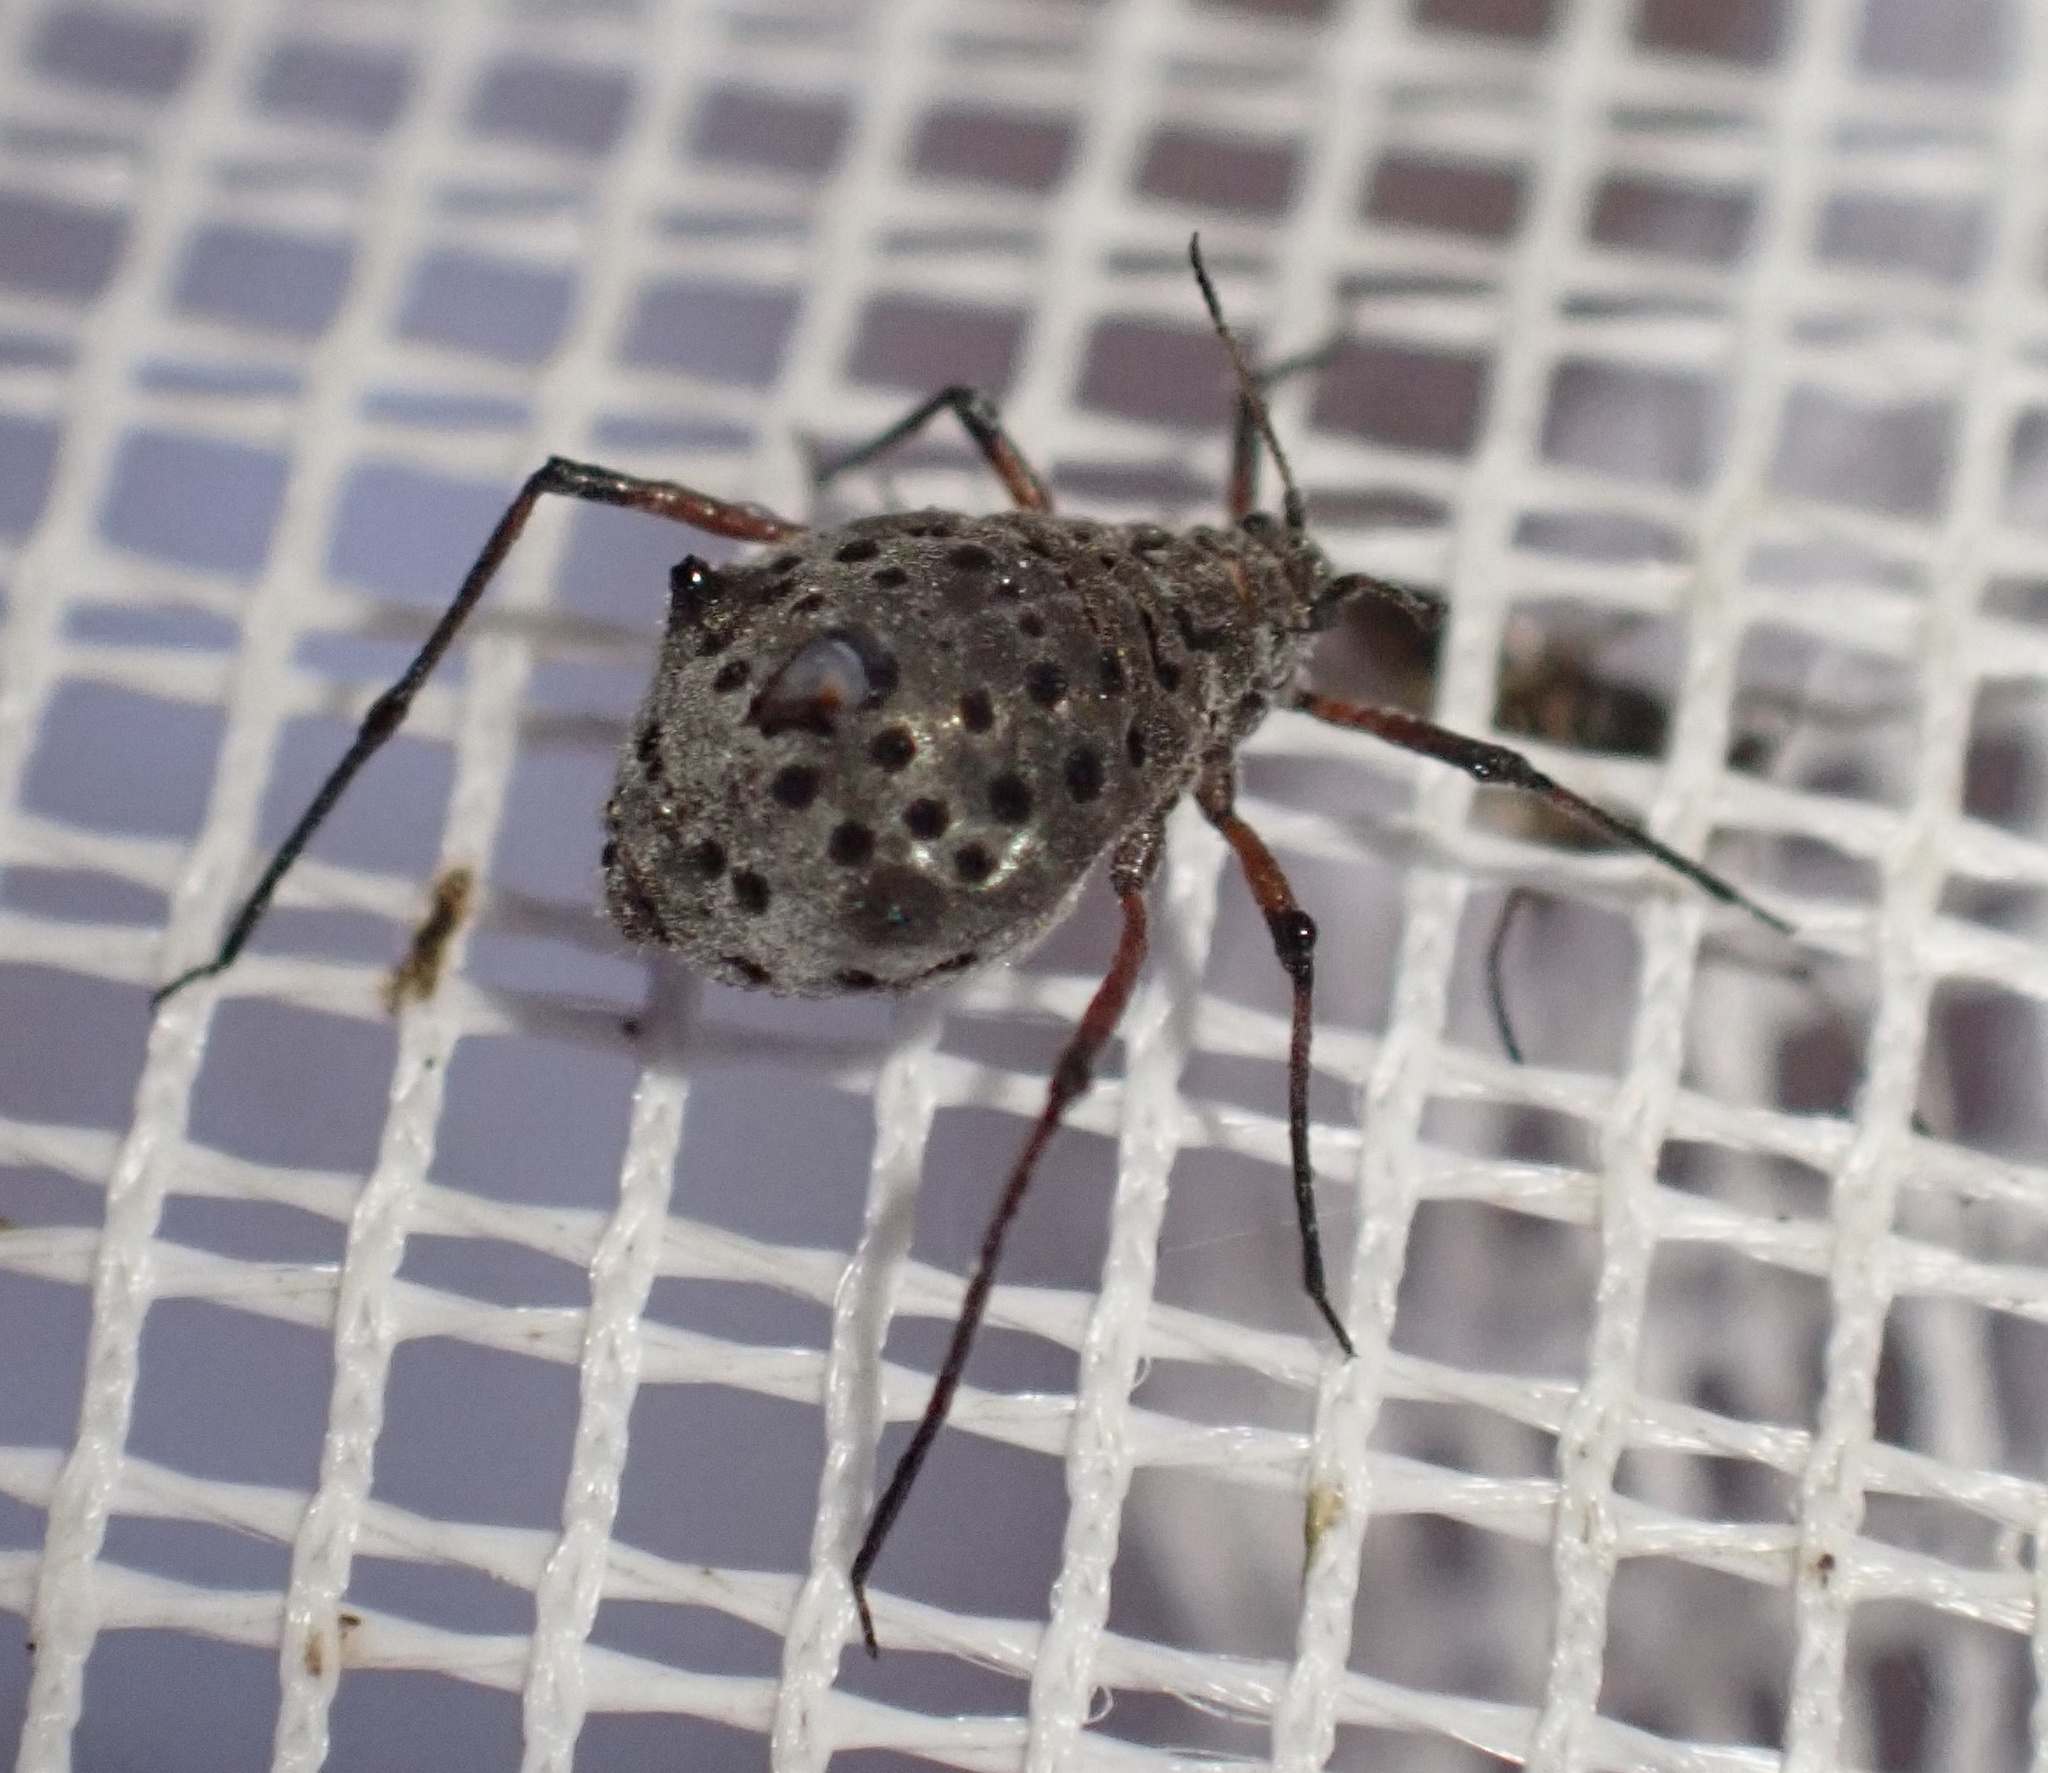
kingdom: Animalia
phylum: Arthropoda
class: Insecta
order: Hemiptera
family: Aphididae
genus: Tuberolachnus
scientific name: Tuberolachnus salignus
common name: Giant willow aphid
